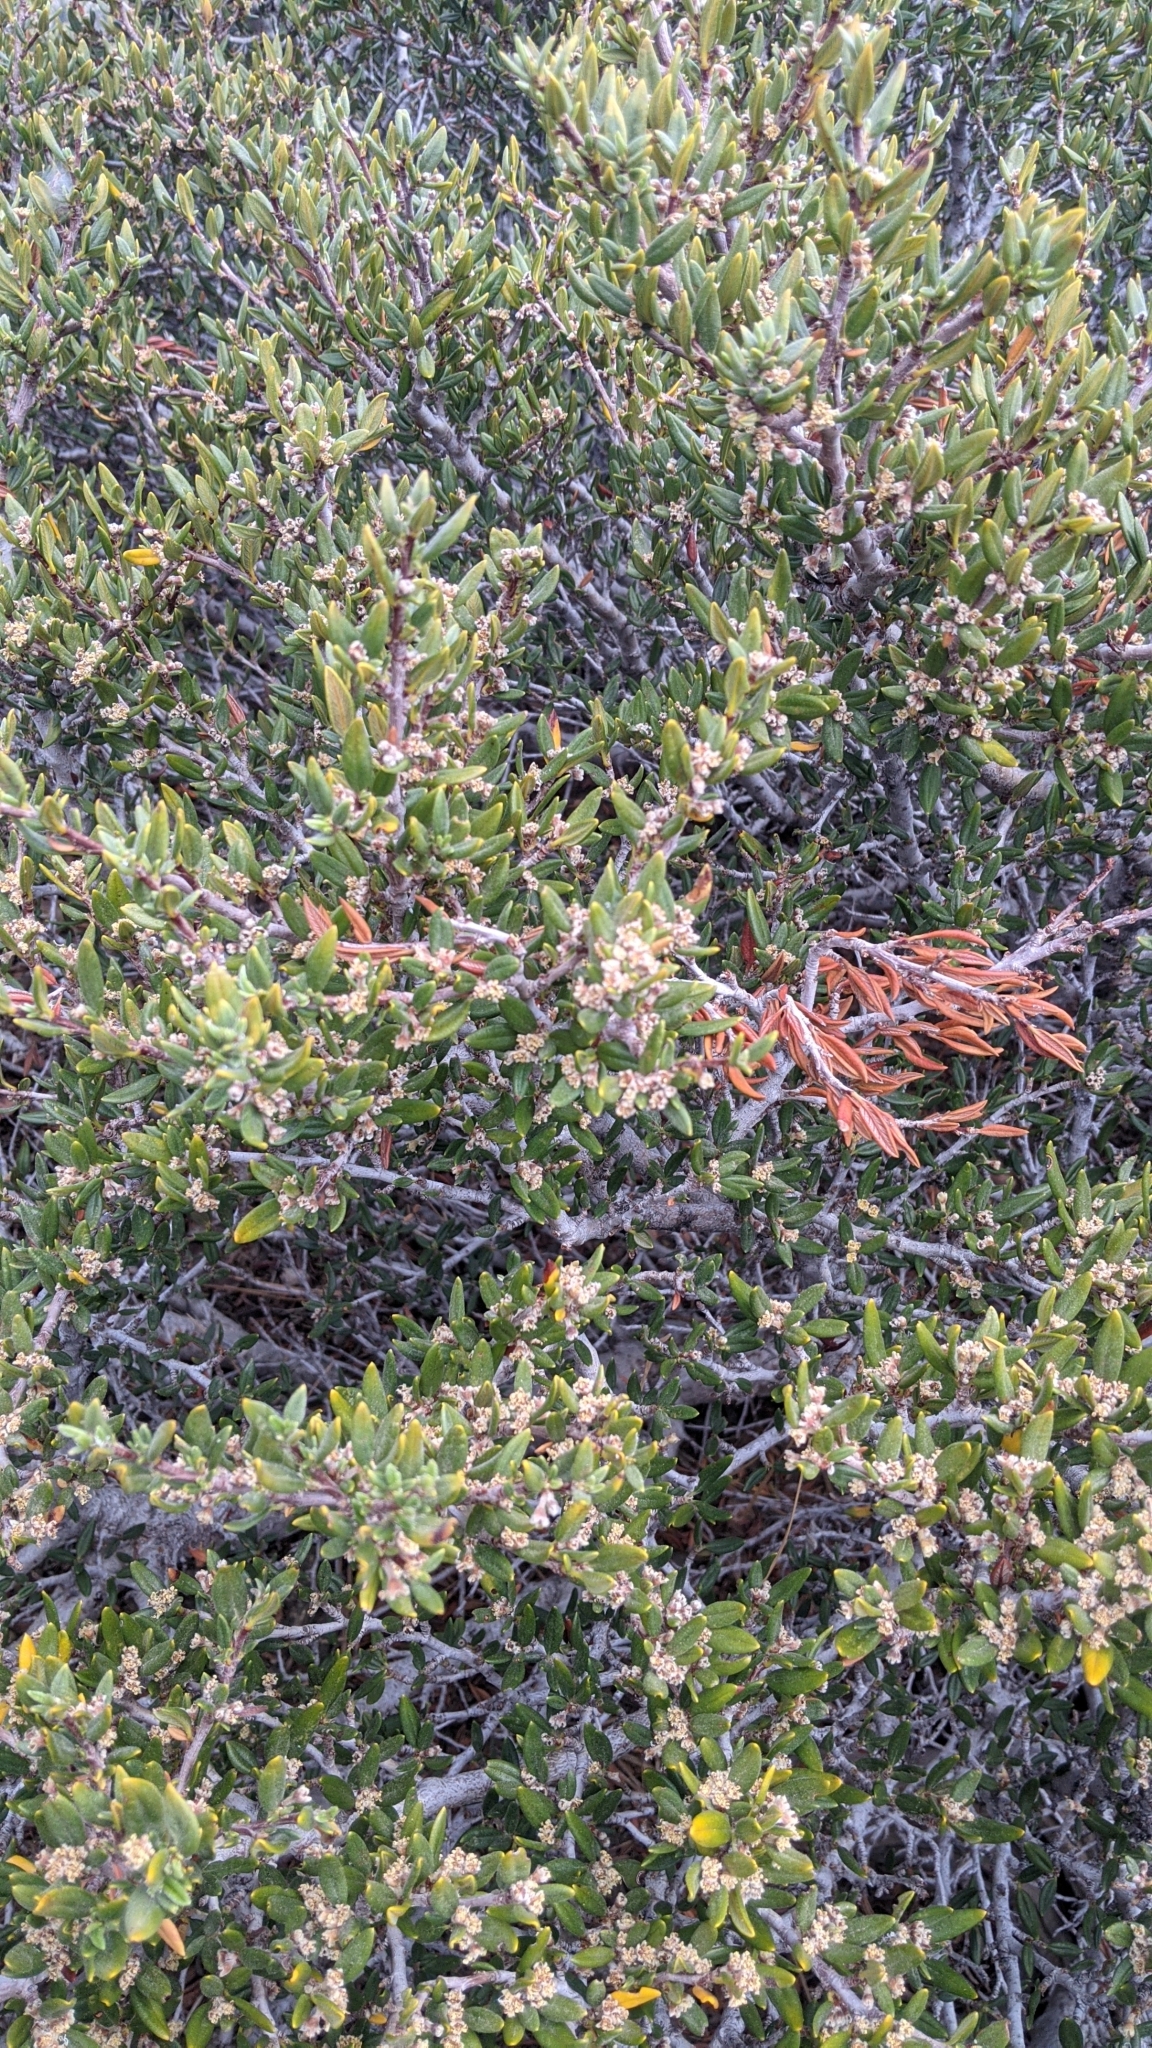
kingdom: Plantae
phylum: Tracheophyta
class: Magnoliopsida
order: Rosales
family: Rosaceae
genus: Cercocarpus
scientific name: Cercocarpus ledifolius
